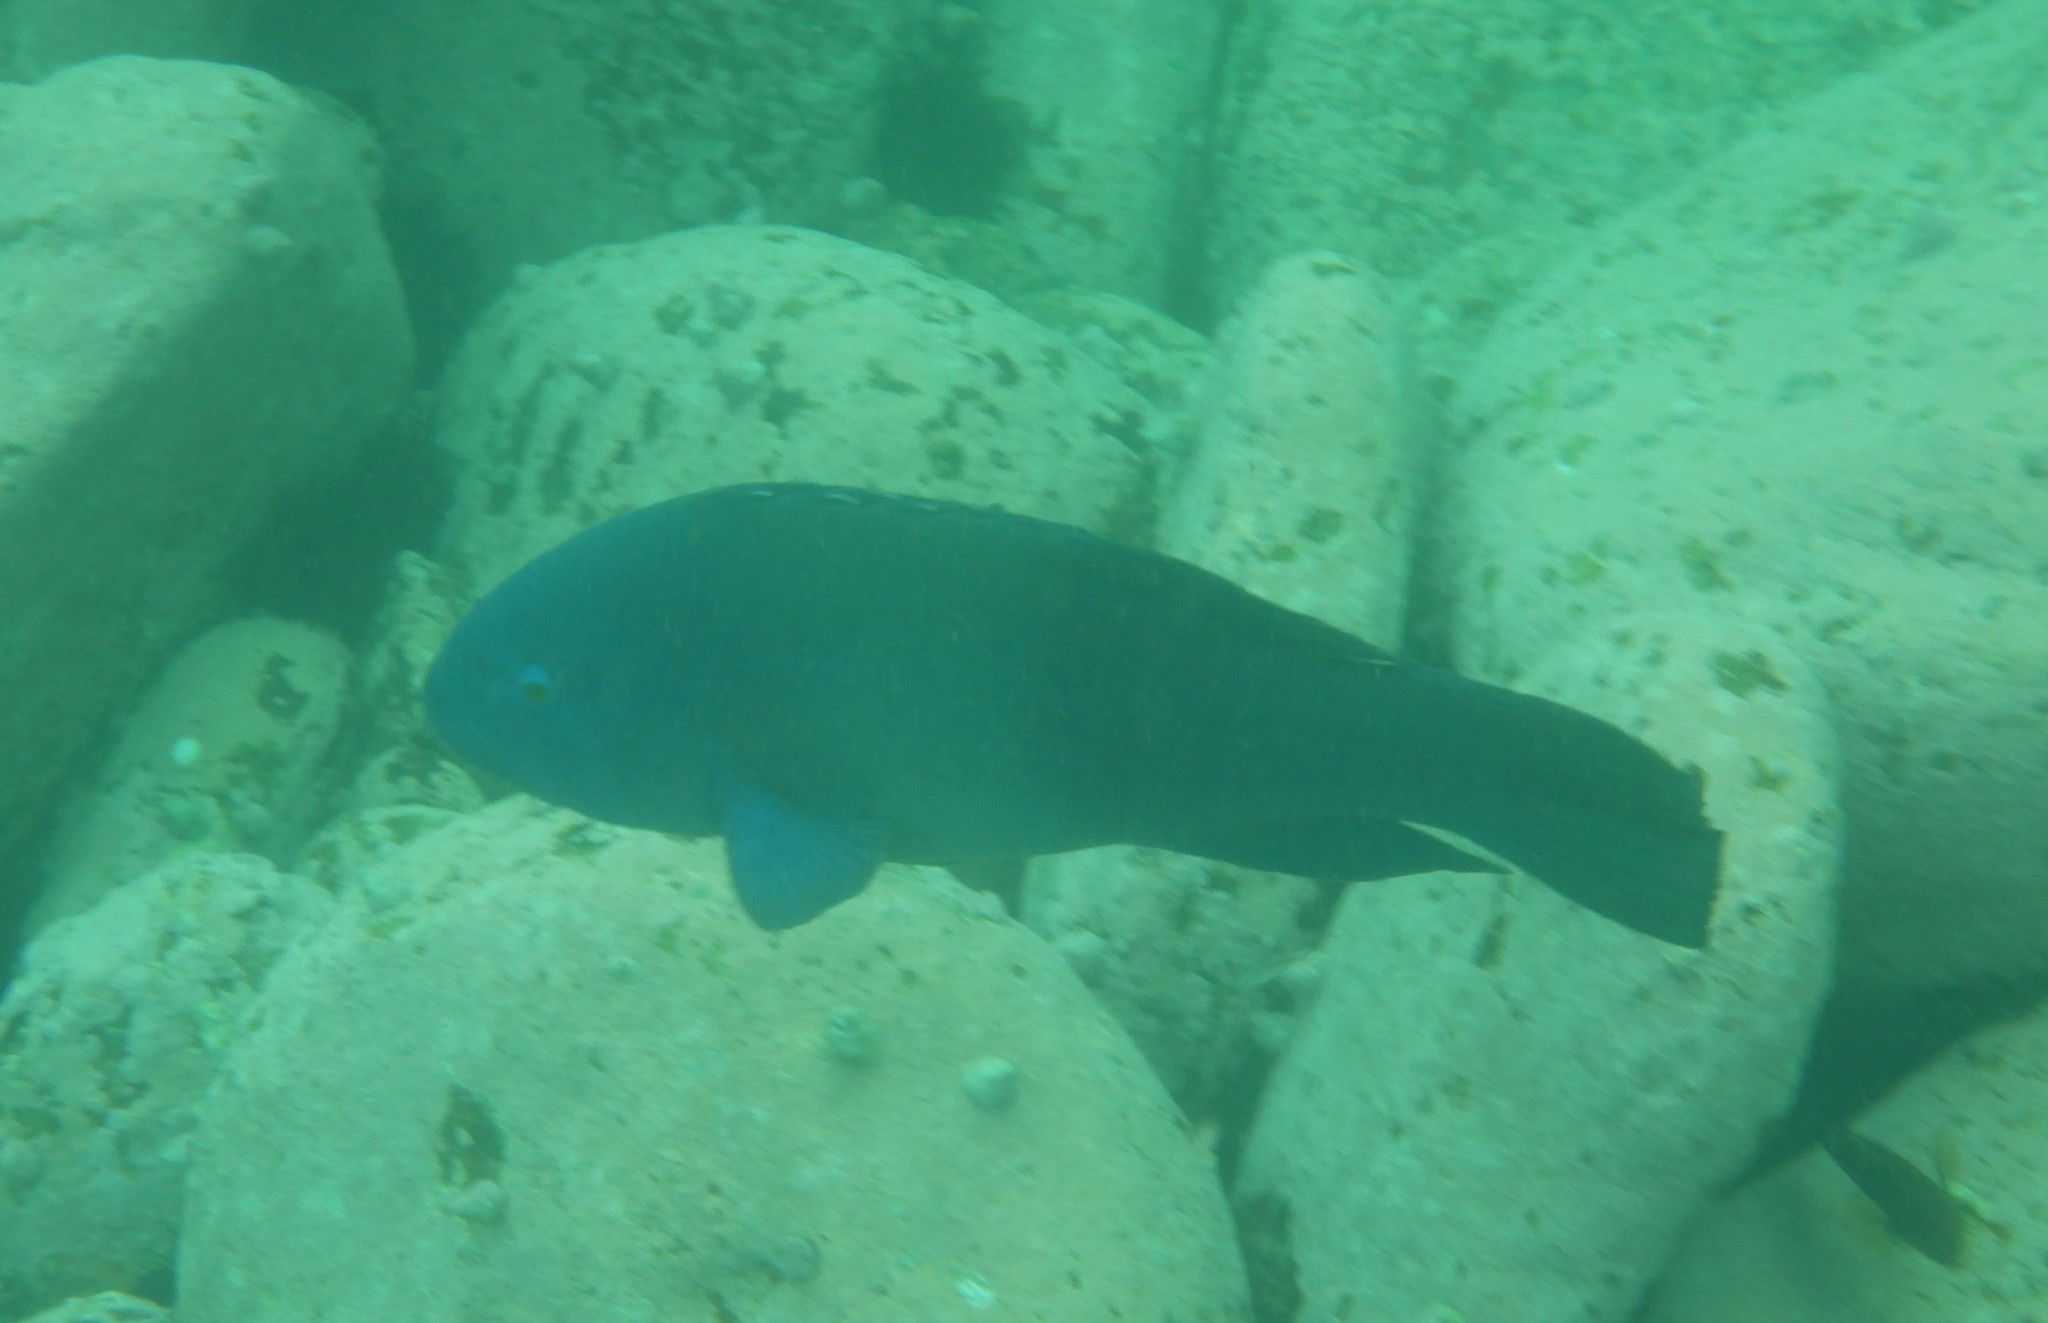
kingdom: Animalia
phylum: Chordata
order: Perciformes
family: Labridae
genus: Achoerodus
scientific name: Achoerodus viridis
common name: Brown groper
